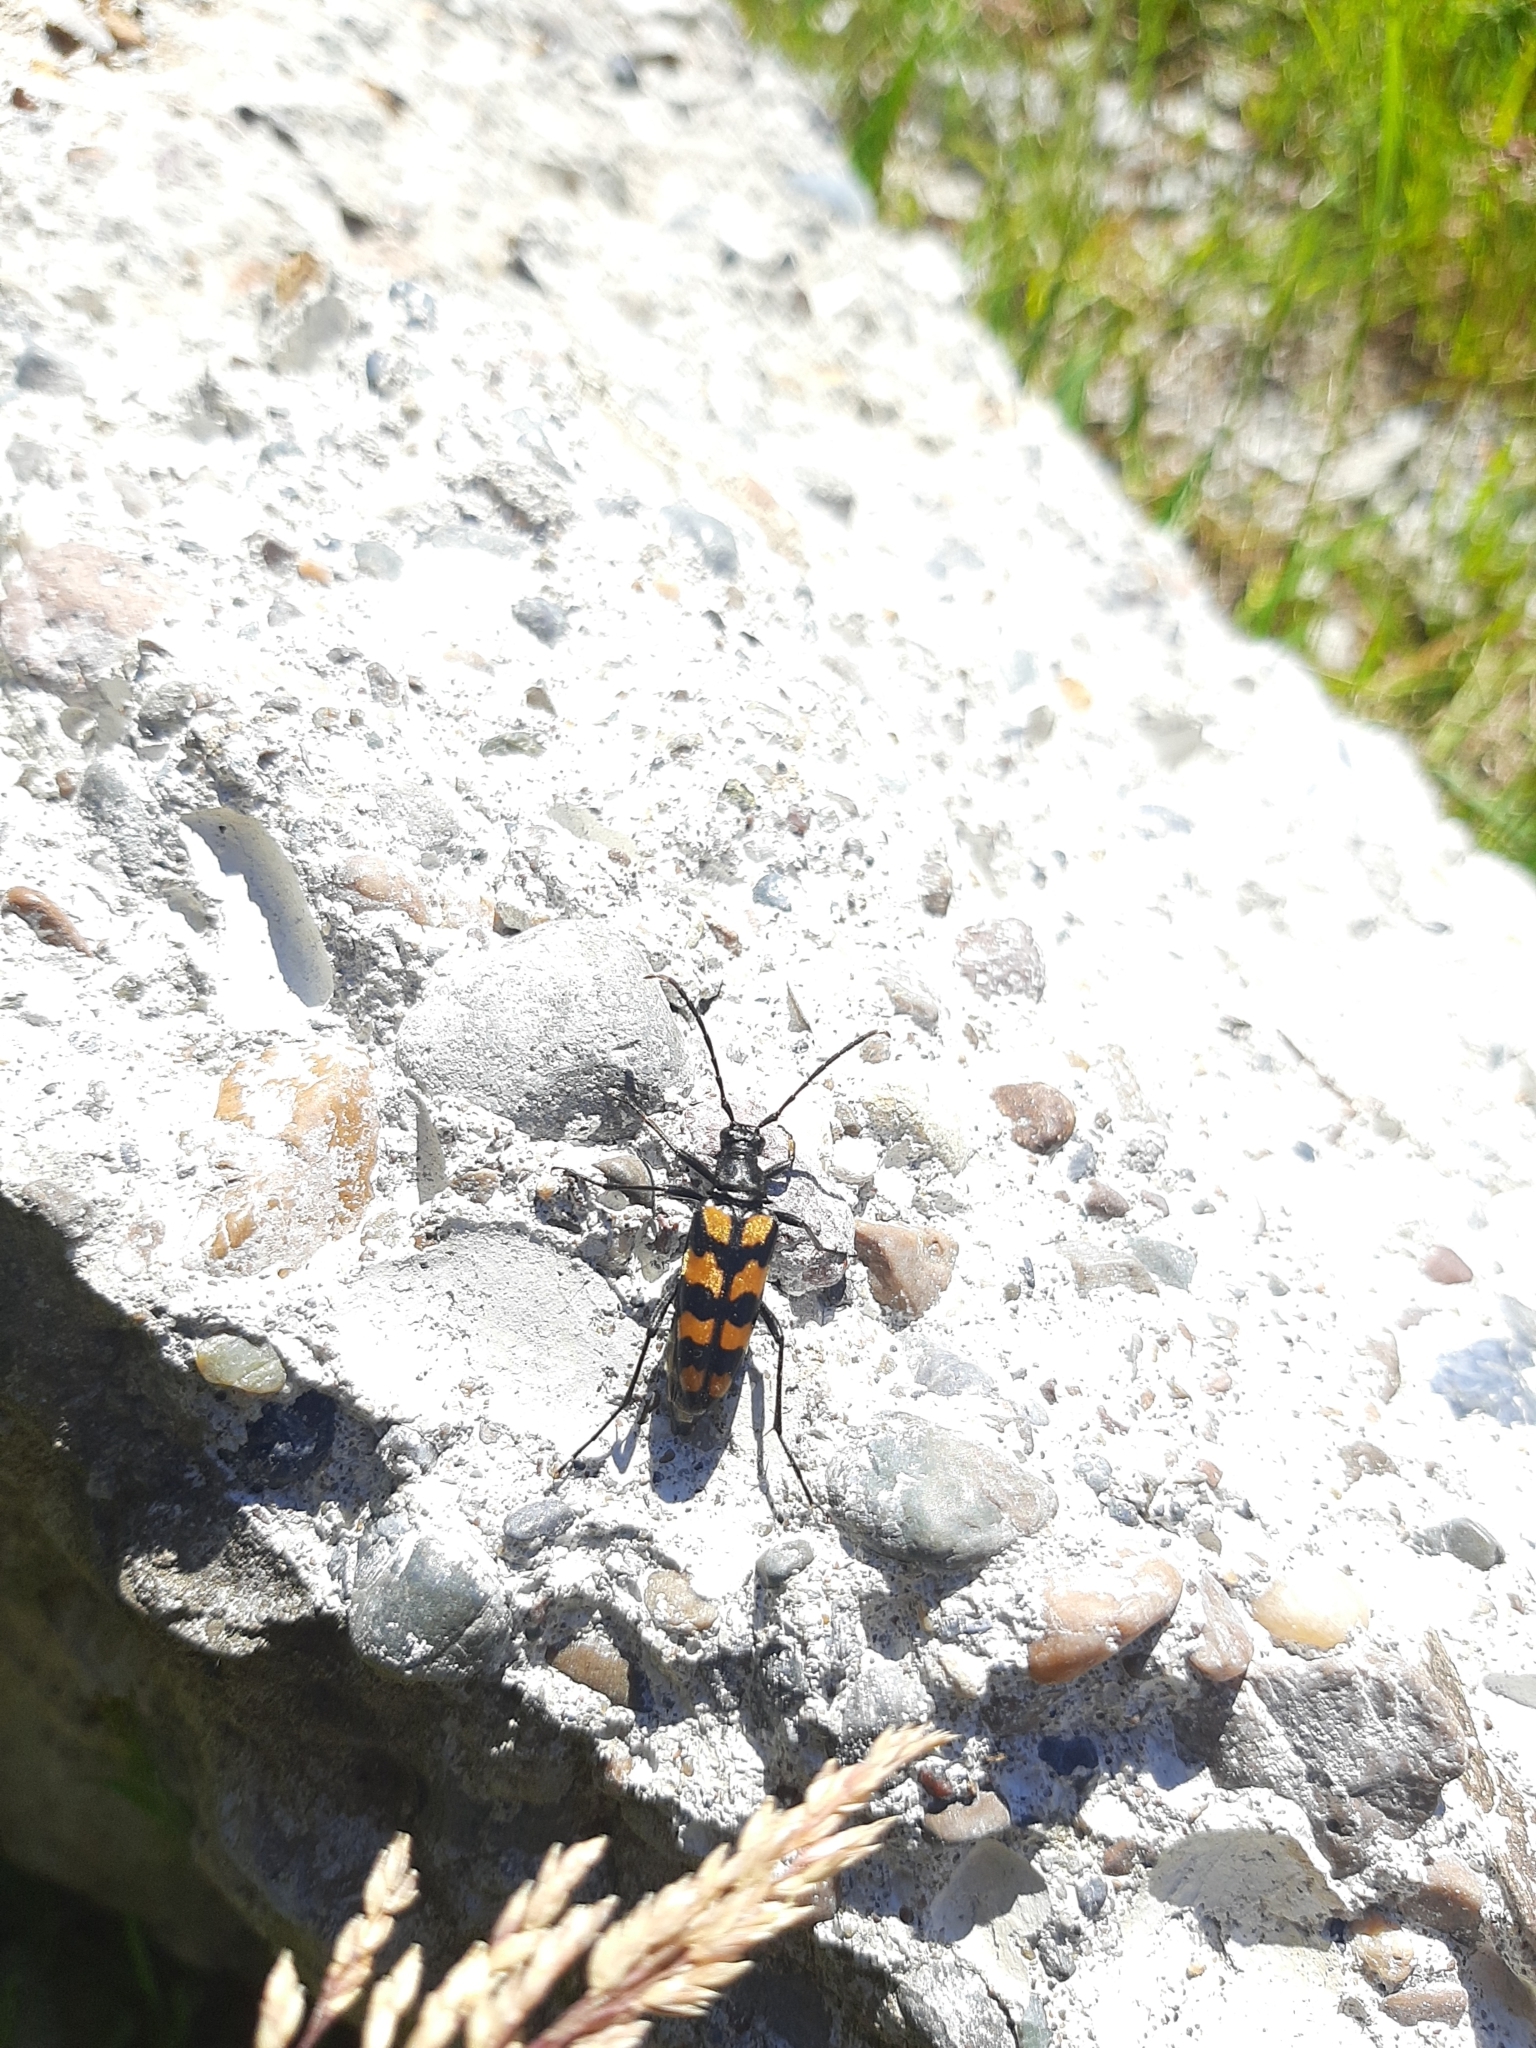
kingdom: Animalia
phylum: Arthropoda
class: Insecta
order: Coleoptera
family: Cerambycidae
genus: Leptura
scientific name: Leptura quadrifasciata
